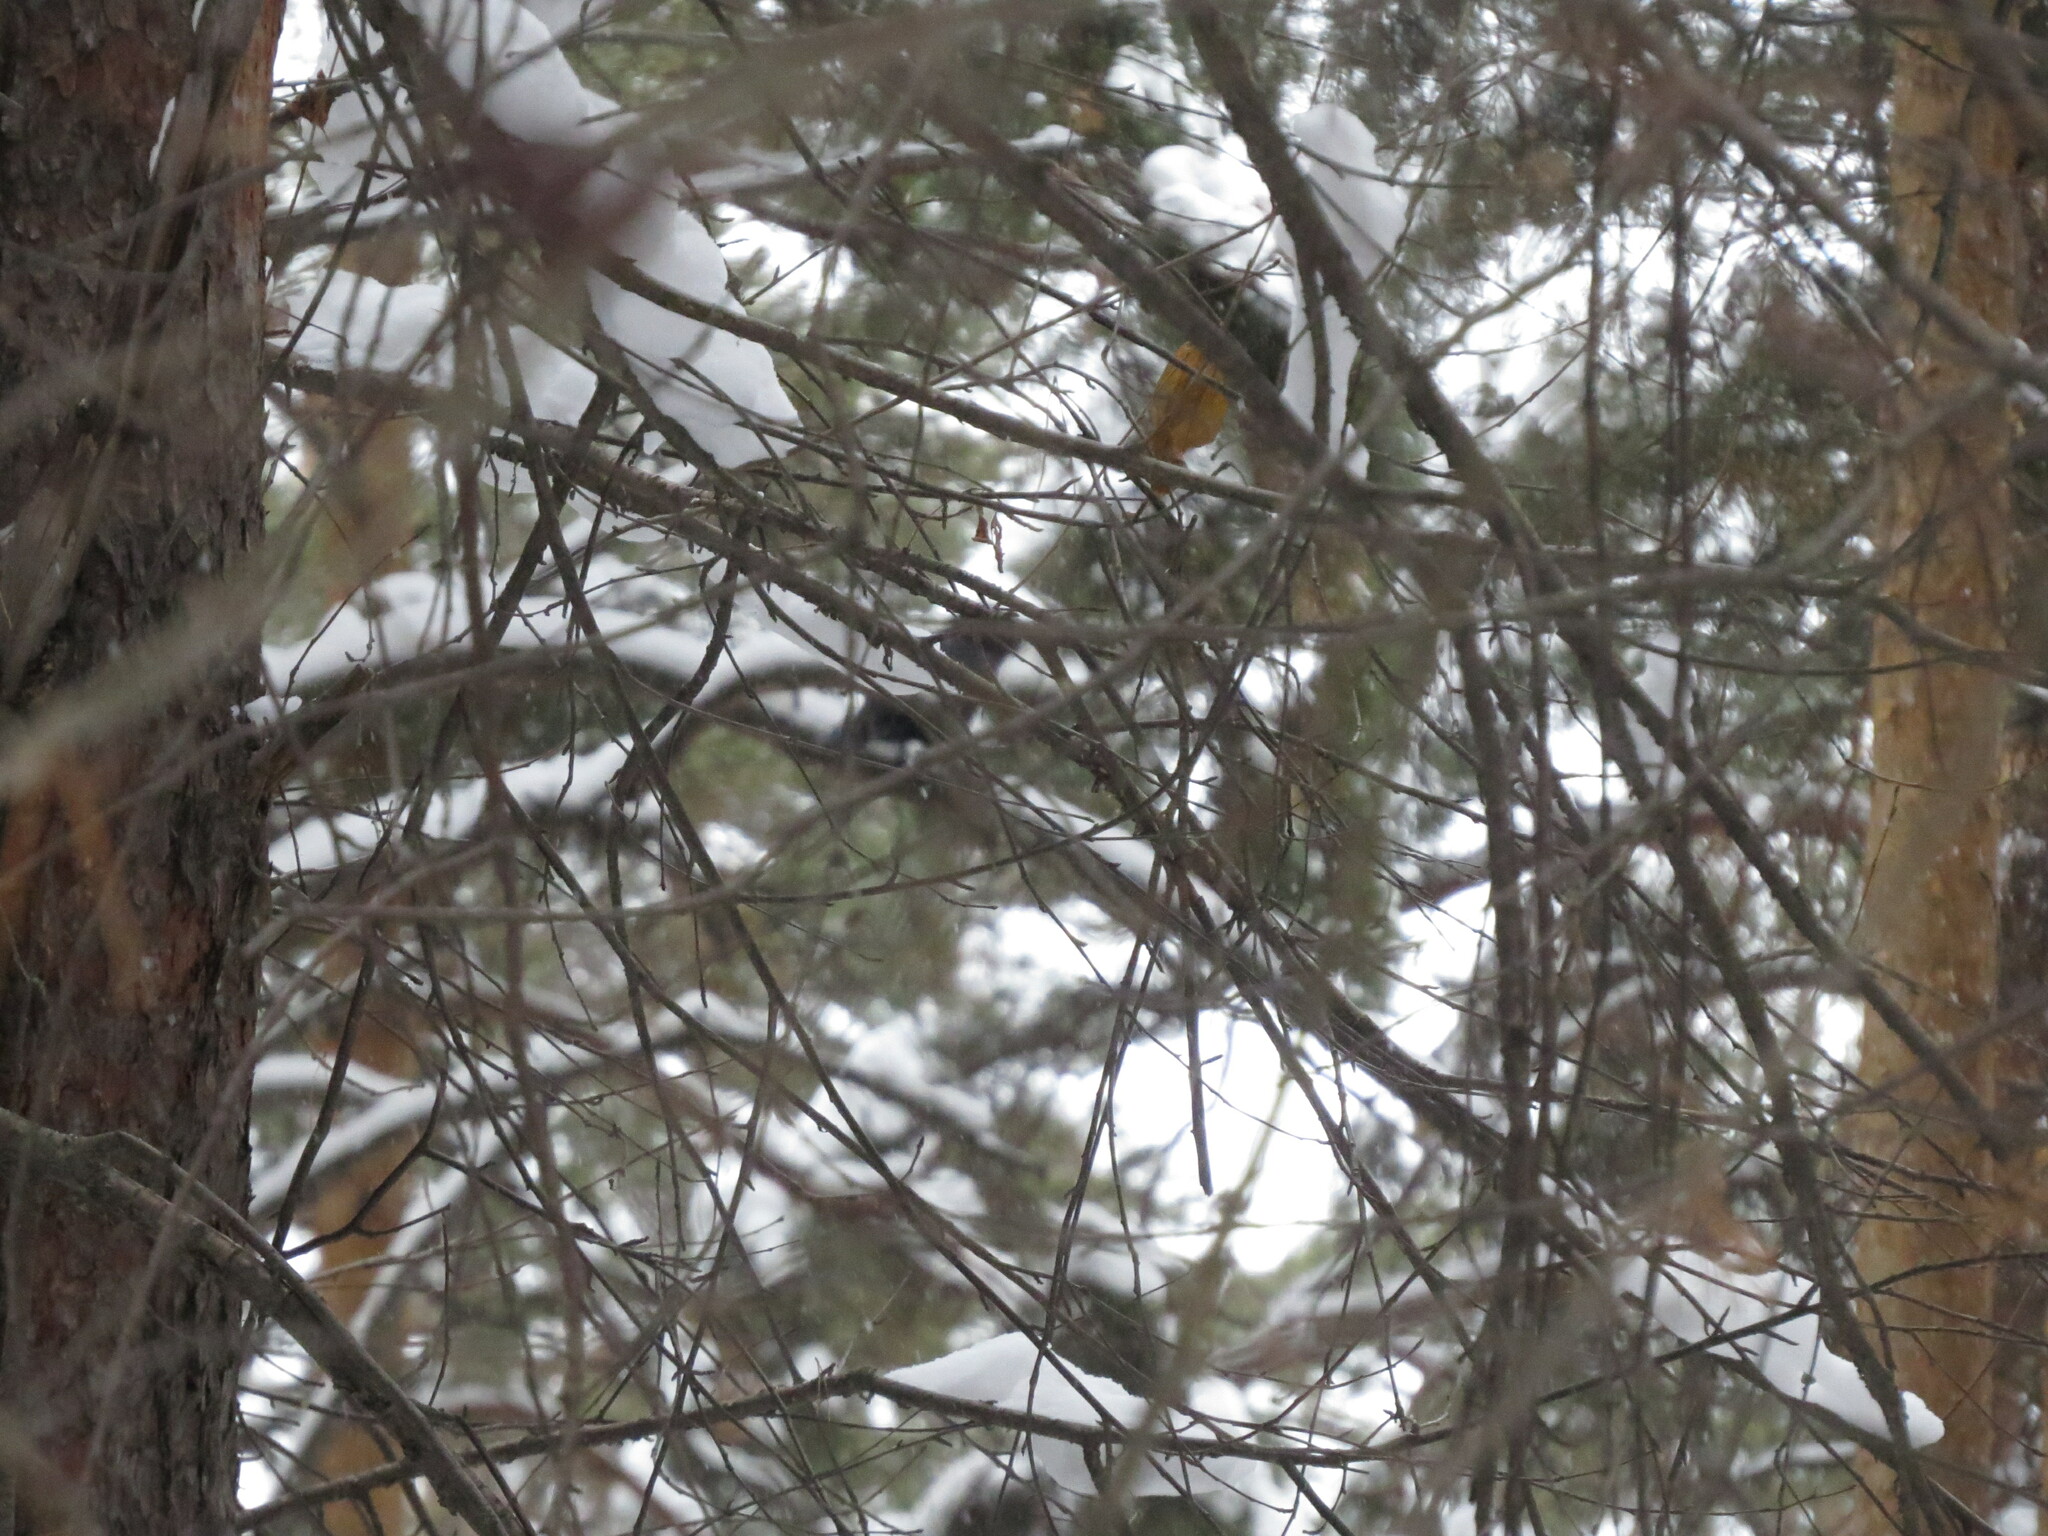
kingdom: Animalia
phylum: Chordata
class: Aves
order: Passeriformes
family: Corvidae
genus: Corvus
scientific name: Corvus corax
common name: Common raven
